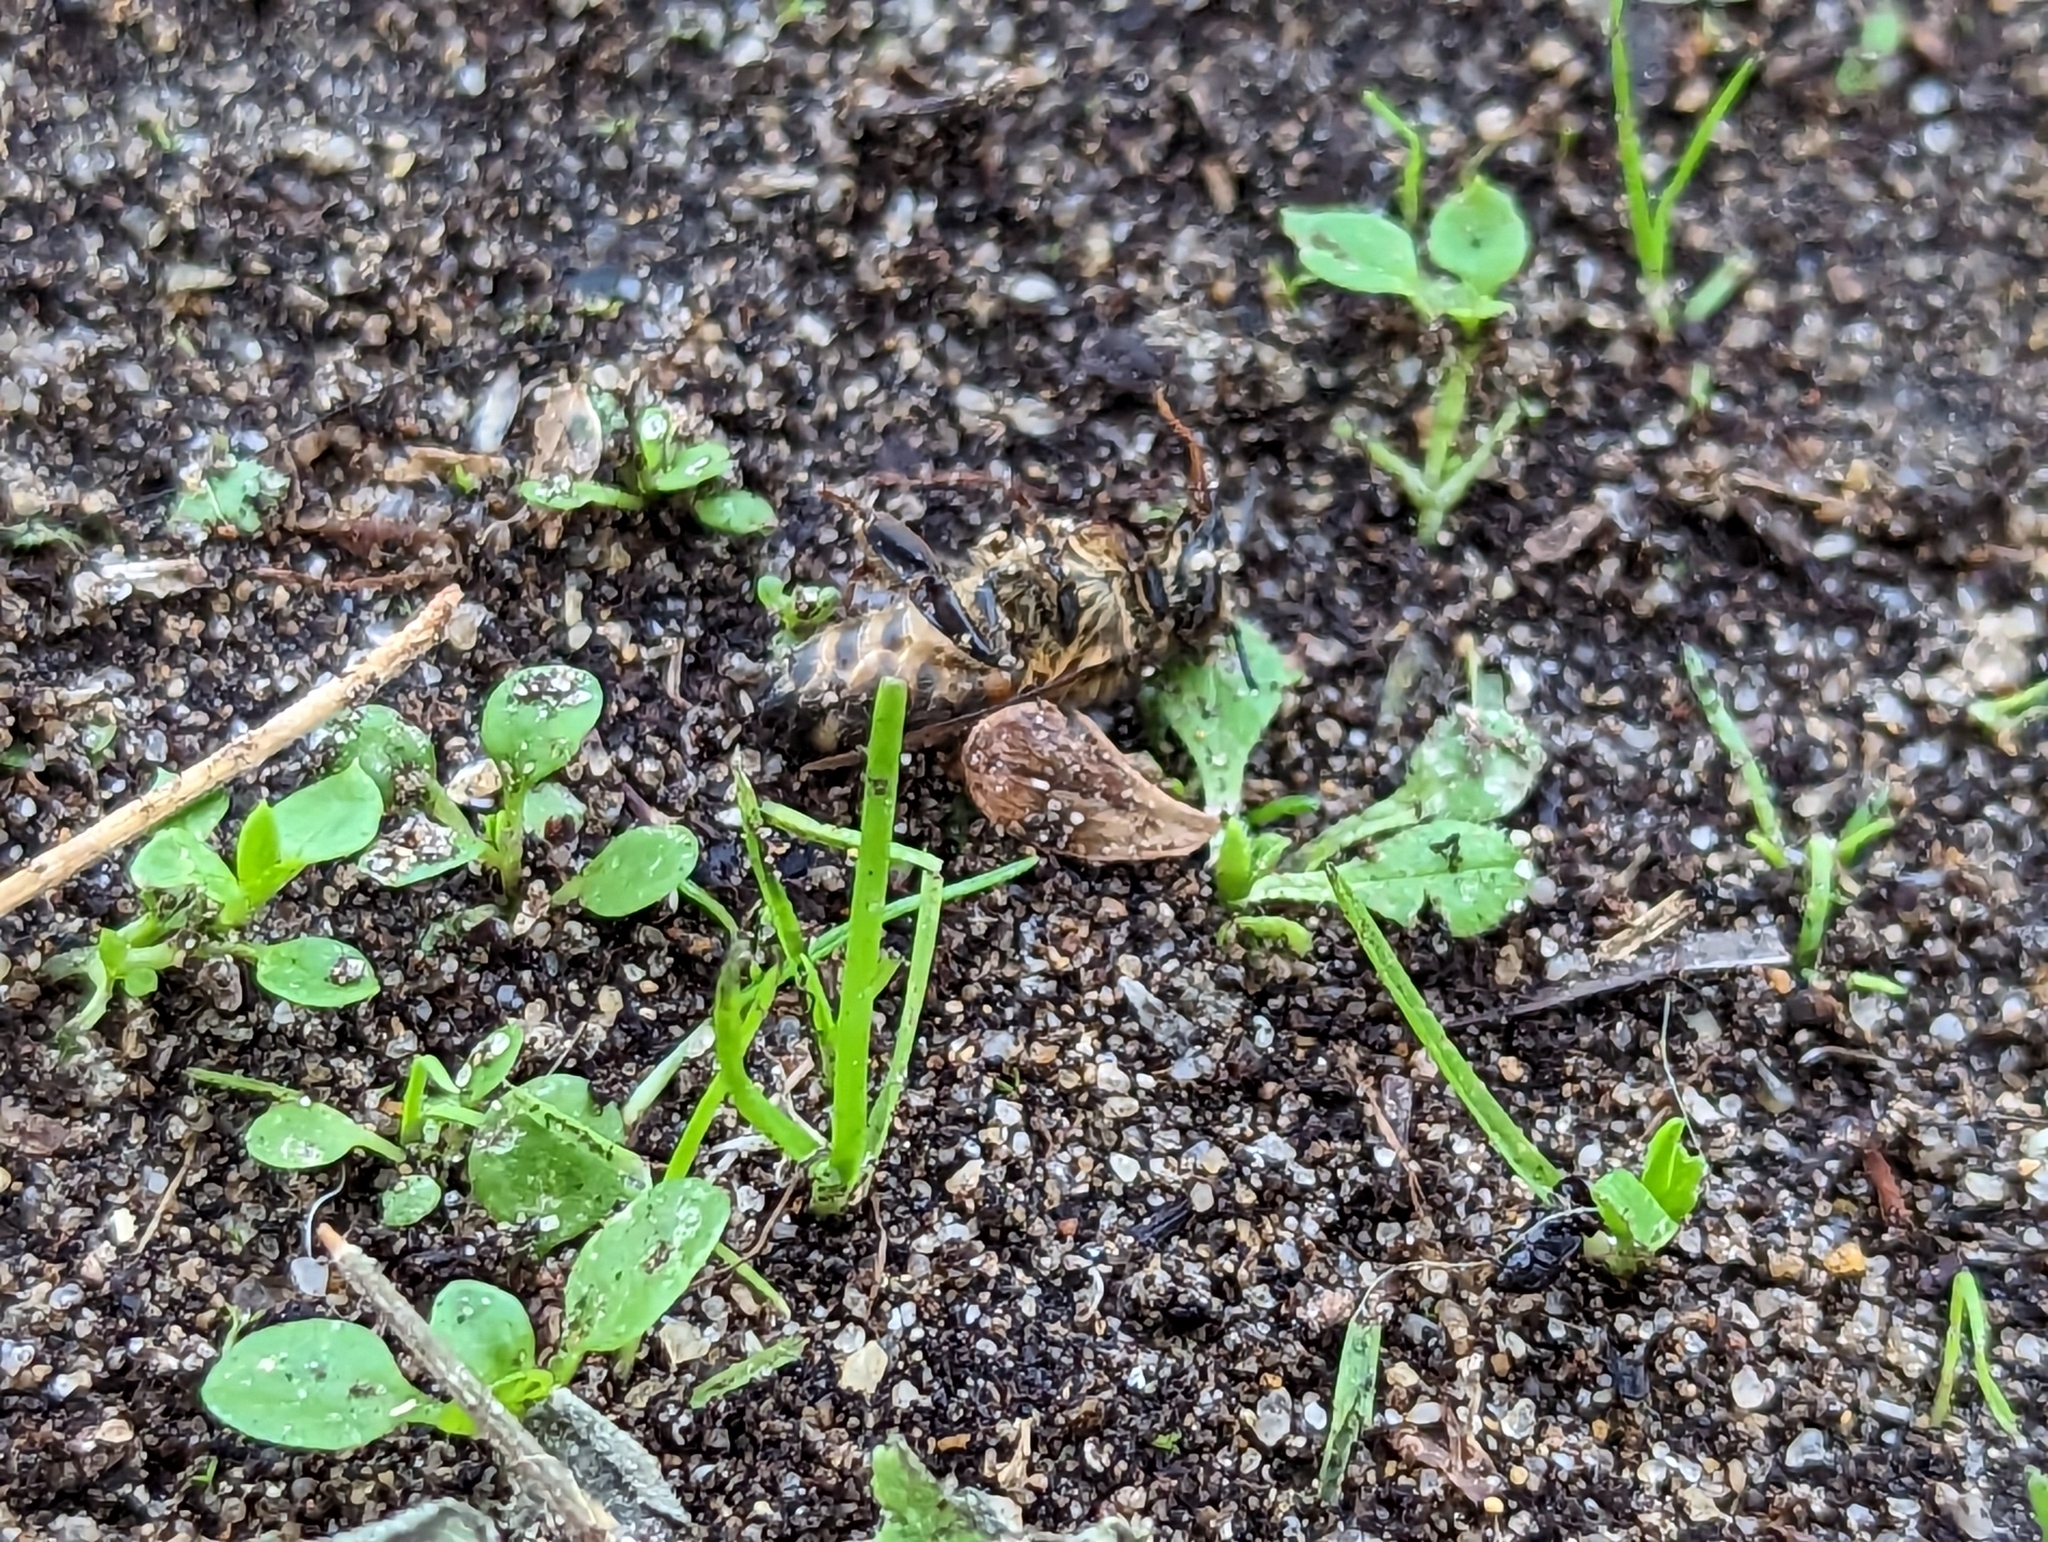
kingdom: Animalia
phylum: Arthropoda
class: Insecta
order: Hymenoptera
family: Apidae
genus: Apis
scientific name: Apis mellifera
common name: Honey bee
